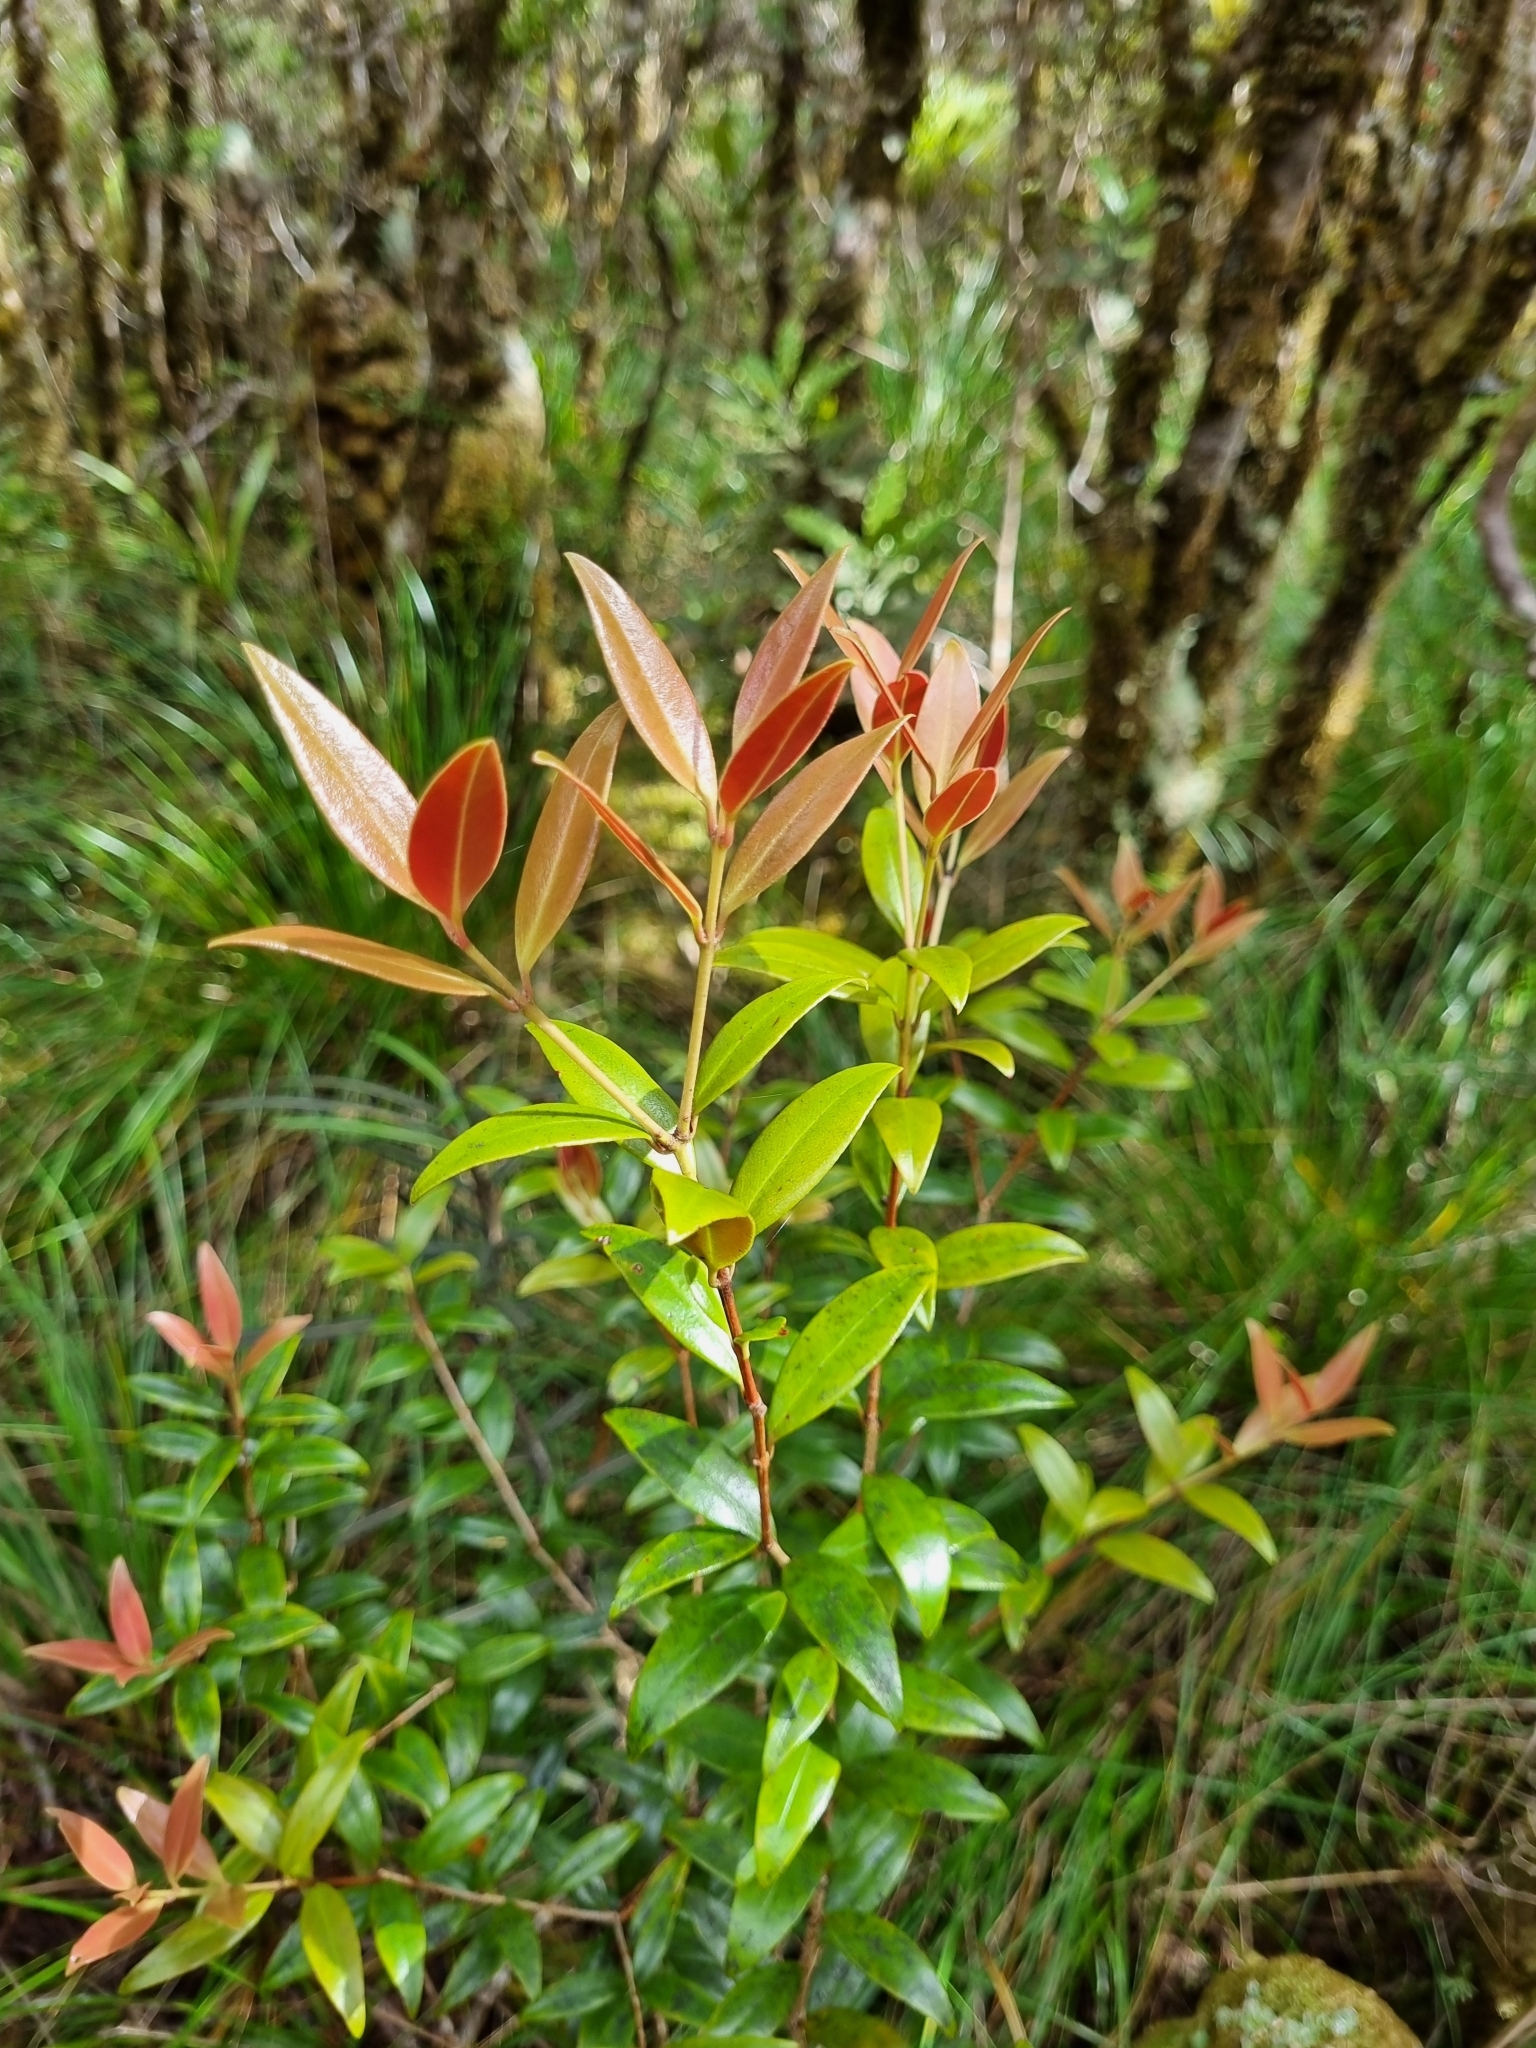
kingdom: Plantae
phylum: Tracheophyta
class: Magnoliopsida
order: Myrtales
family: Myrtaceae
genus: Metrosideros
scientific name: Metrosideros umbellata
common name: Southern rata
